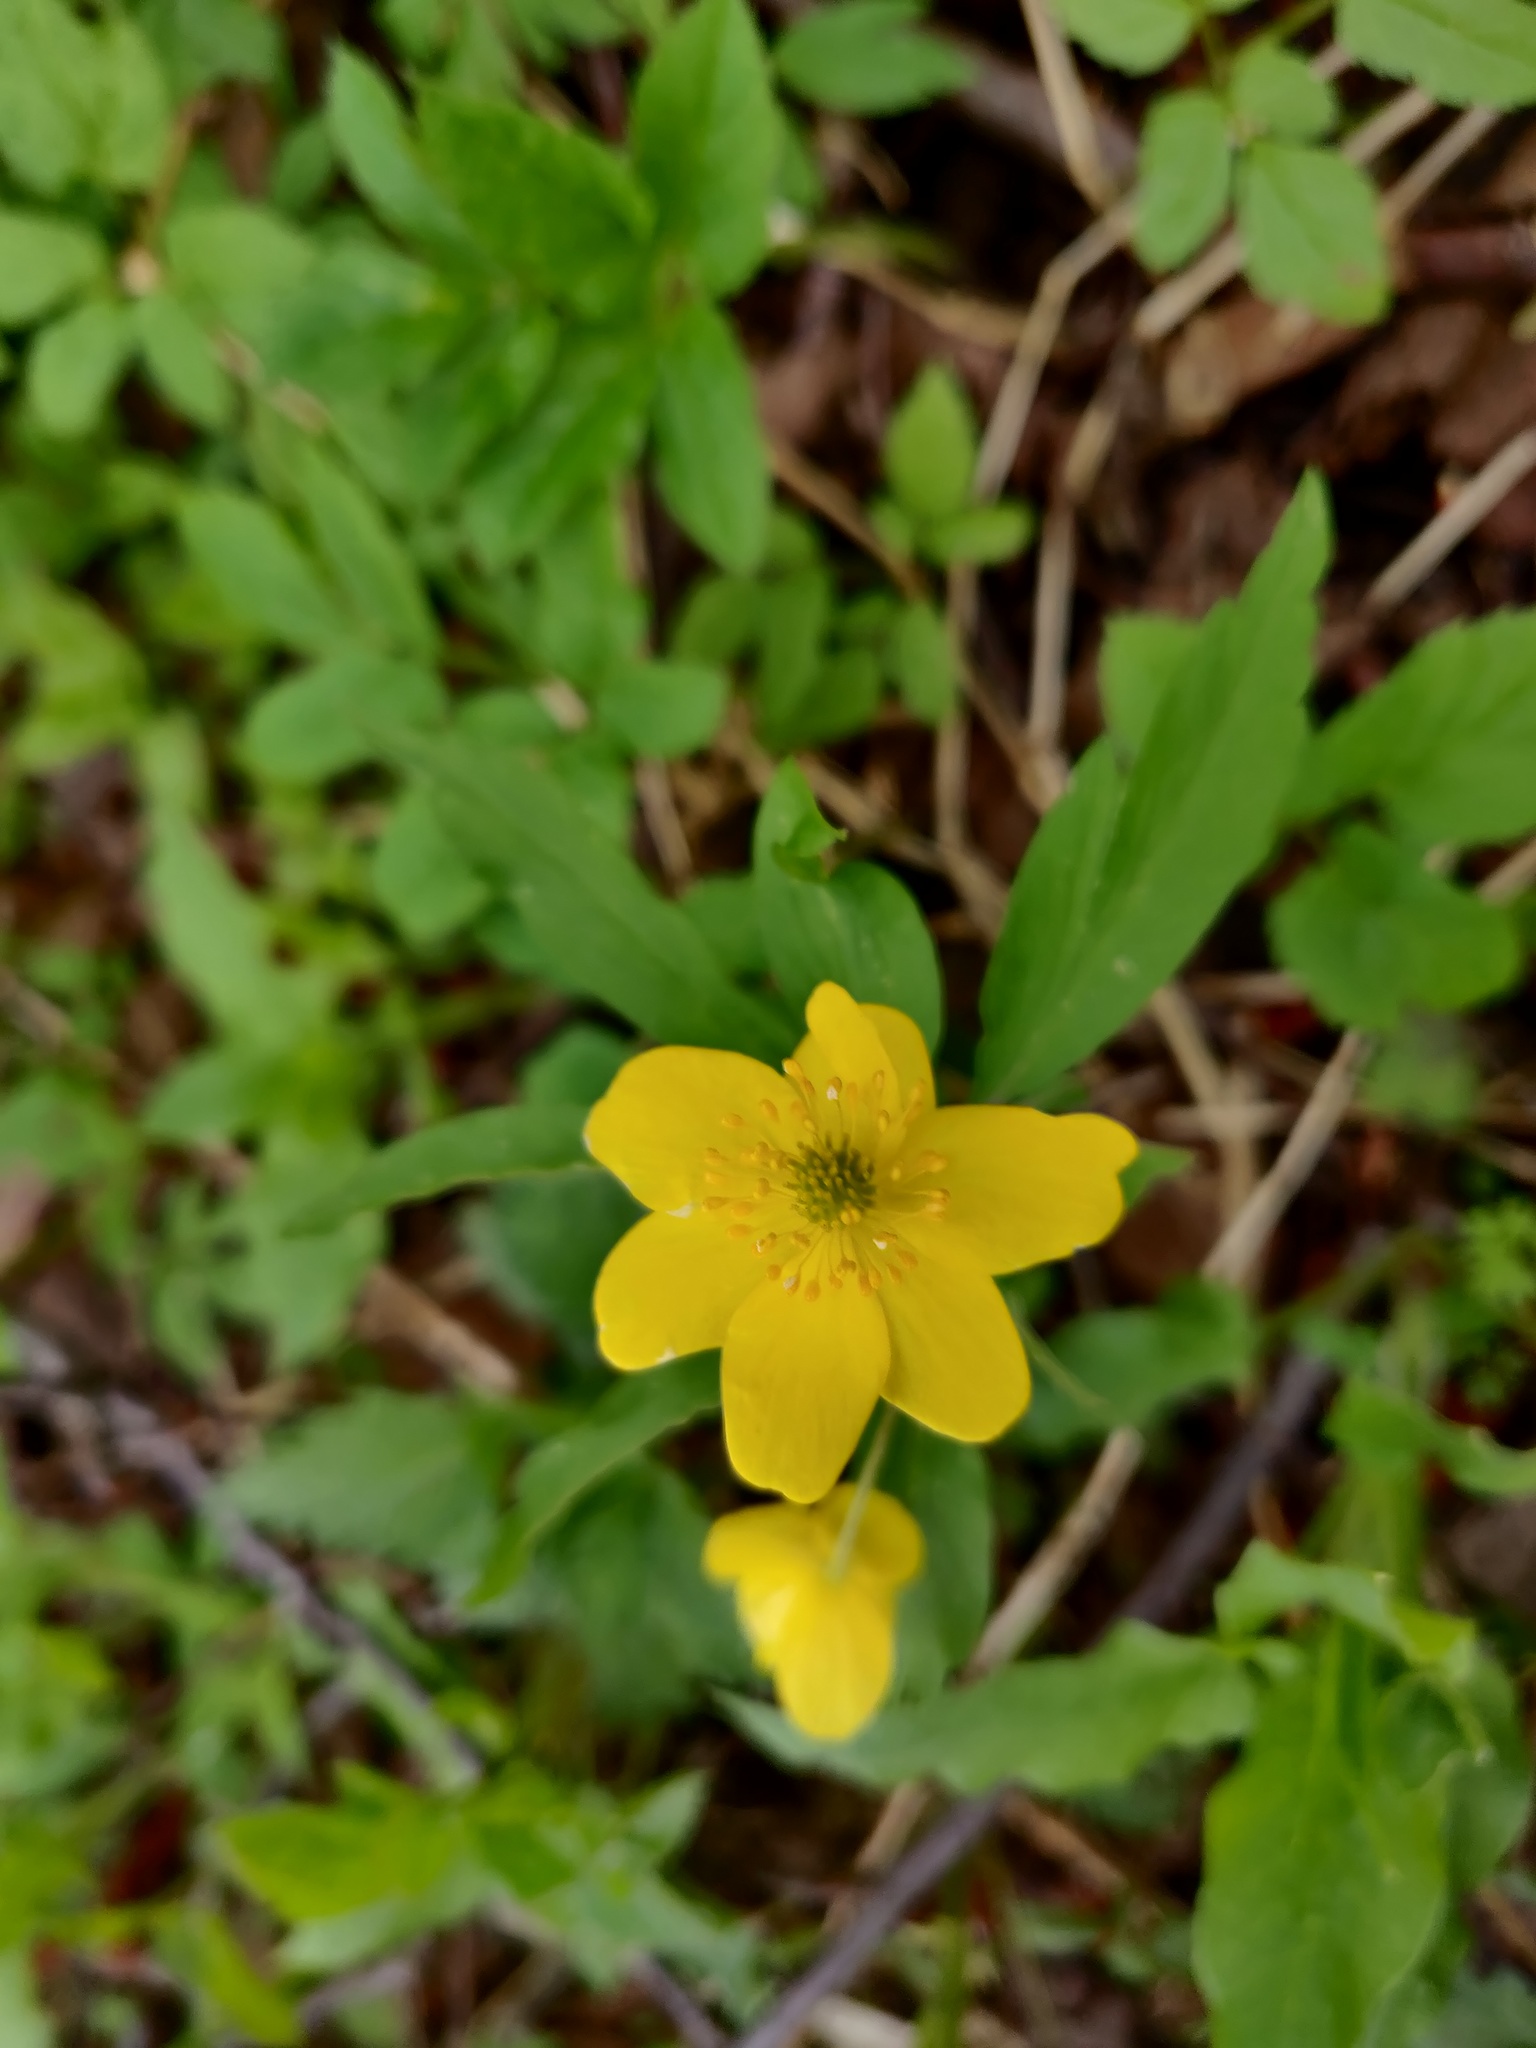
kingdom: Plantae
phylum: Tracheophyta
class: Magnoliopsida
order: Ranunculales
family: Ranunculaceae
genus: Anemone
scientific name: Anemone ranunculoides
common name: Yellow anemone
